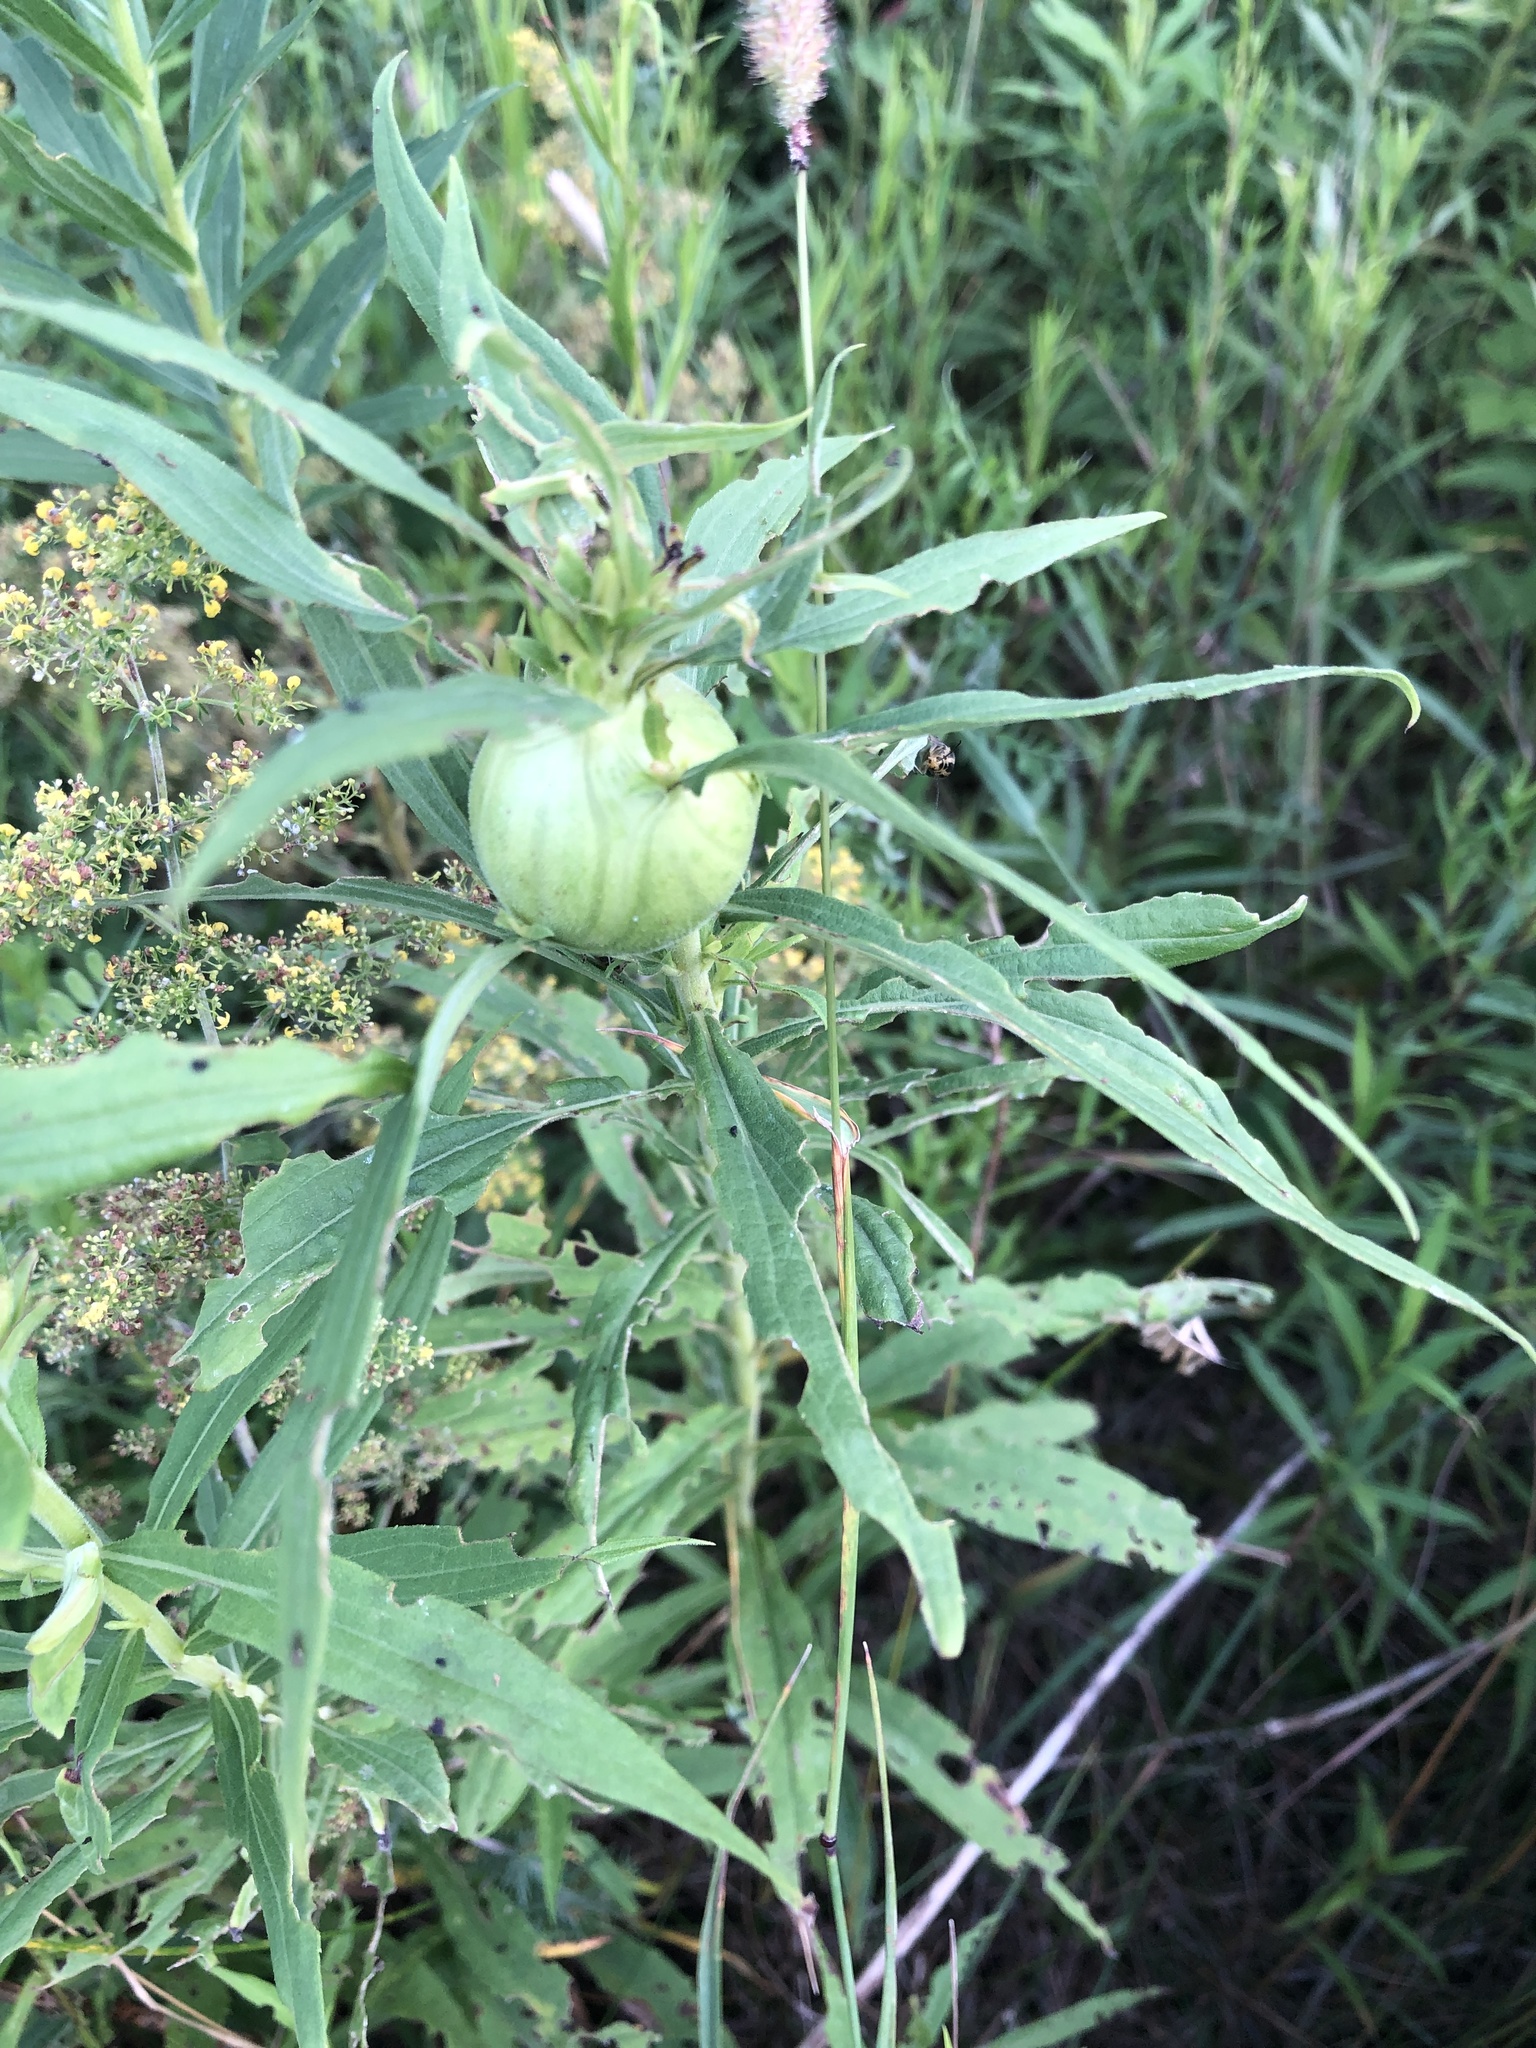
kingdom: Animalia
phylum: Arthropoda
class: Insecta
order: Diptera
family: Tephritidae
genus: Eurosta
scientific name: Eurosta solidaginis
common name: Goldenrod gall fly
